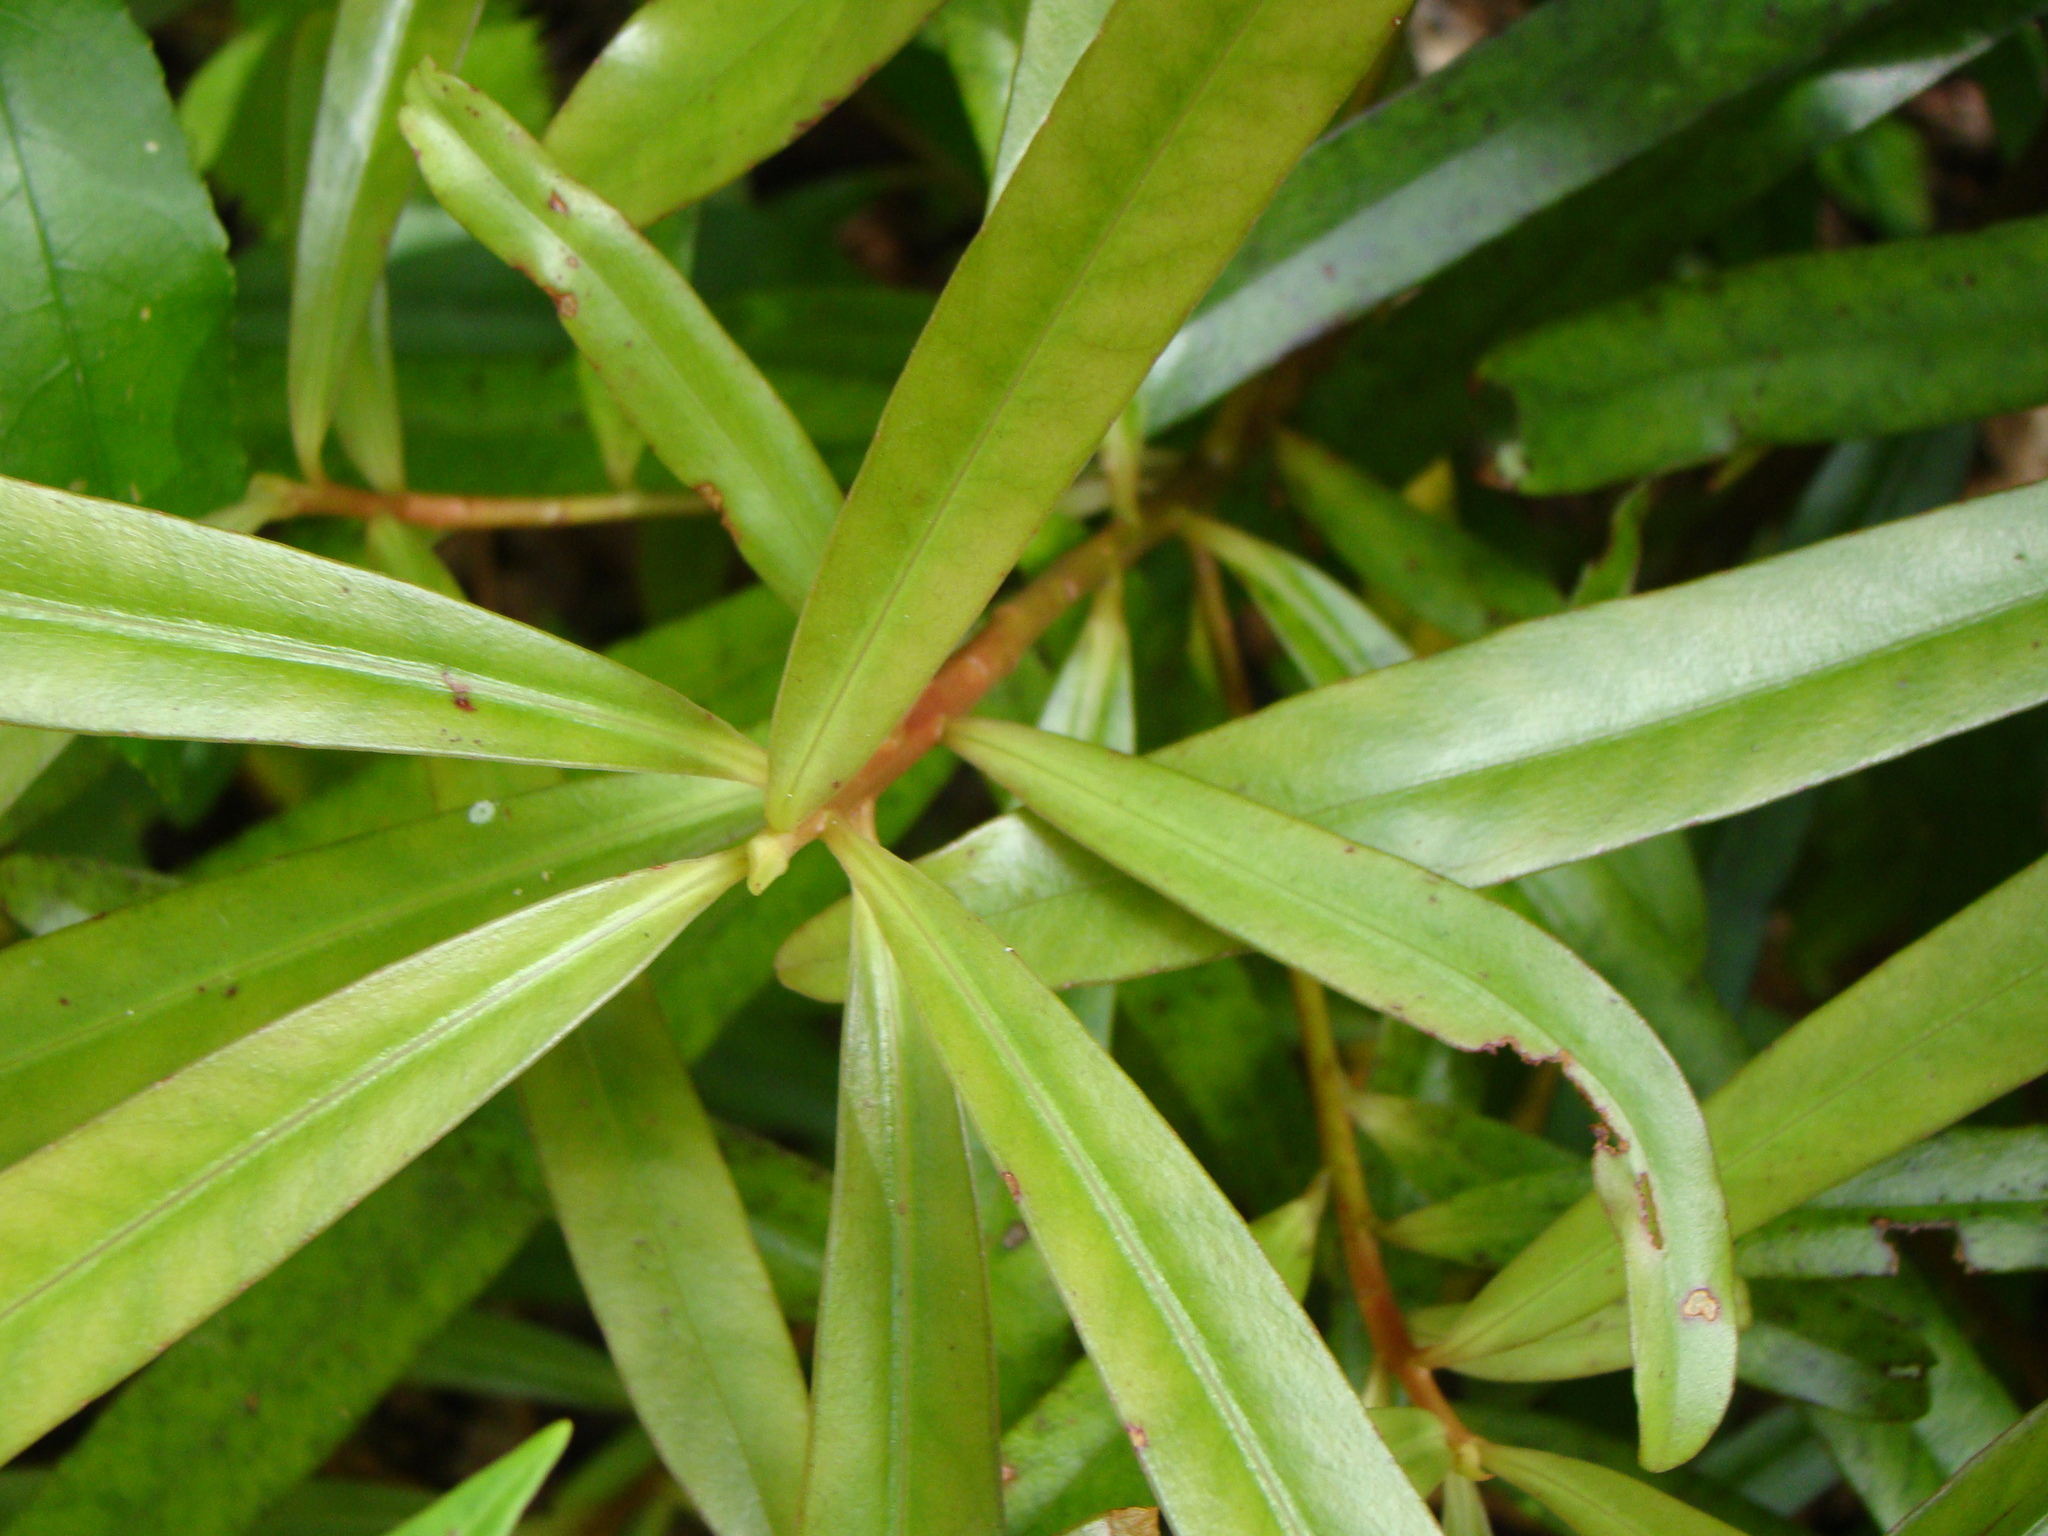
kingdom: Plantae
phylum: Tracheophyta
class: Magnoliopsida
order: Ericales
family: Primulaceae
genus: Myrsine
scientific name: Myrsine salicina
